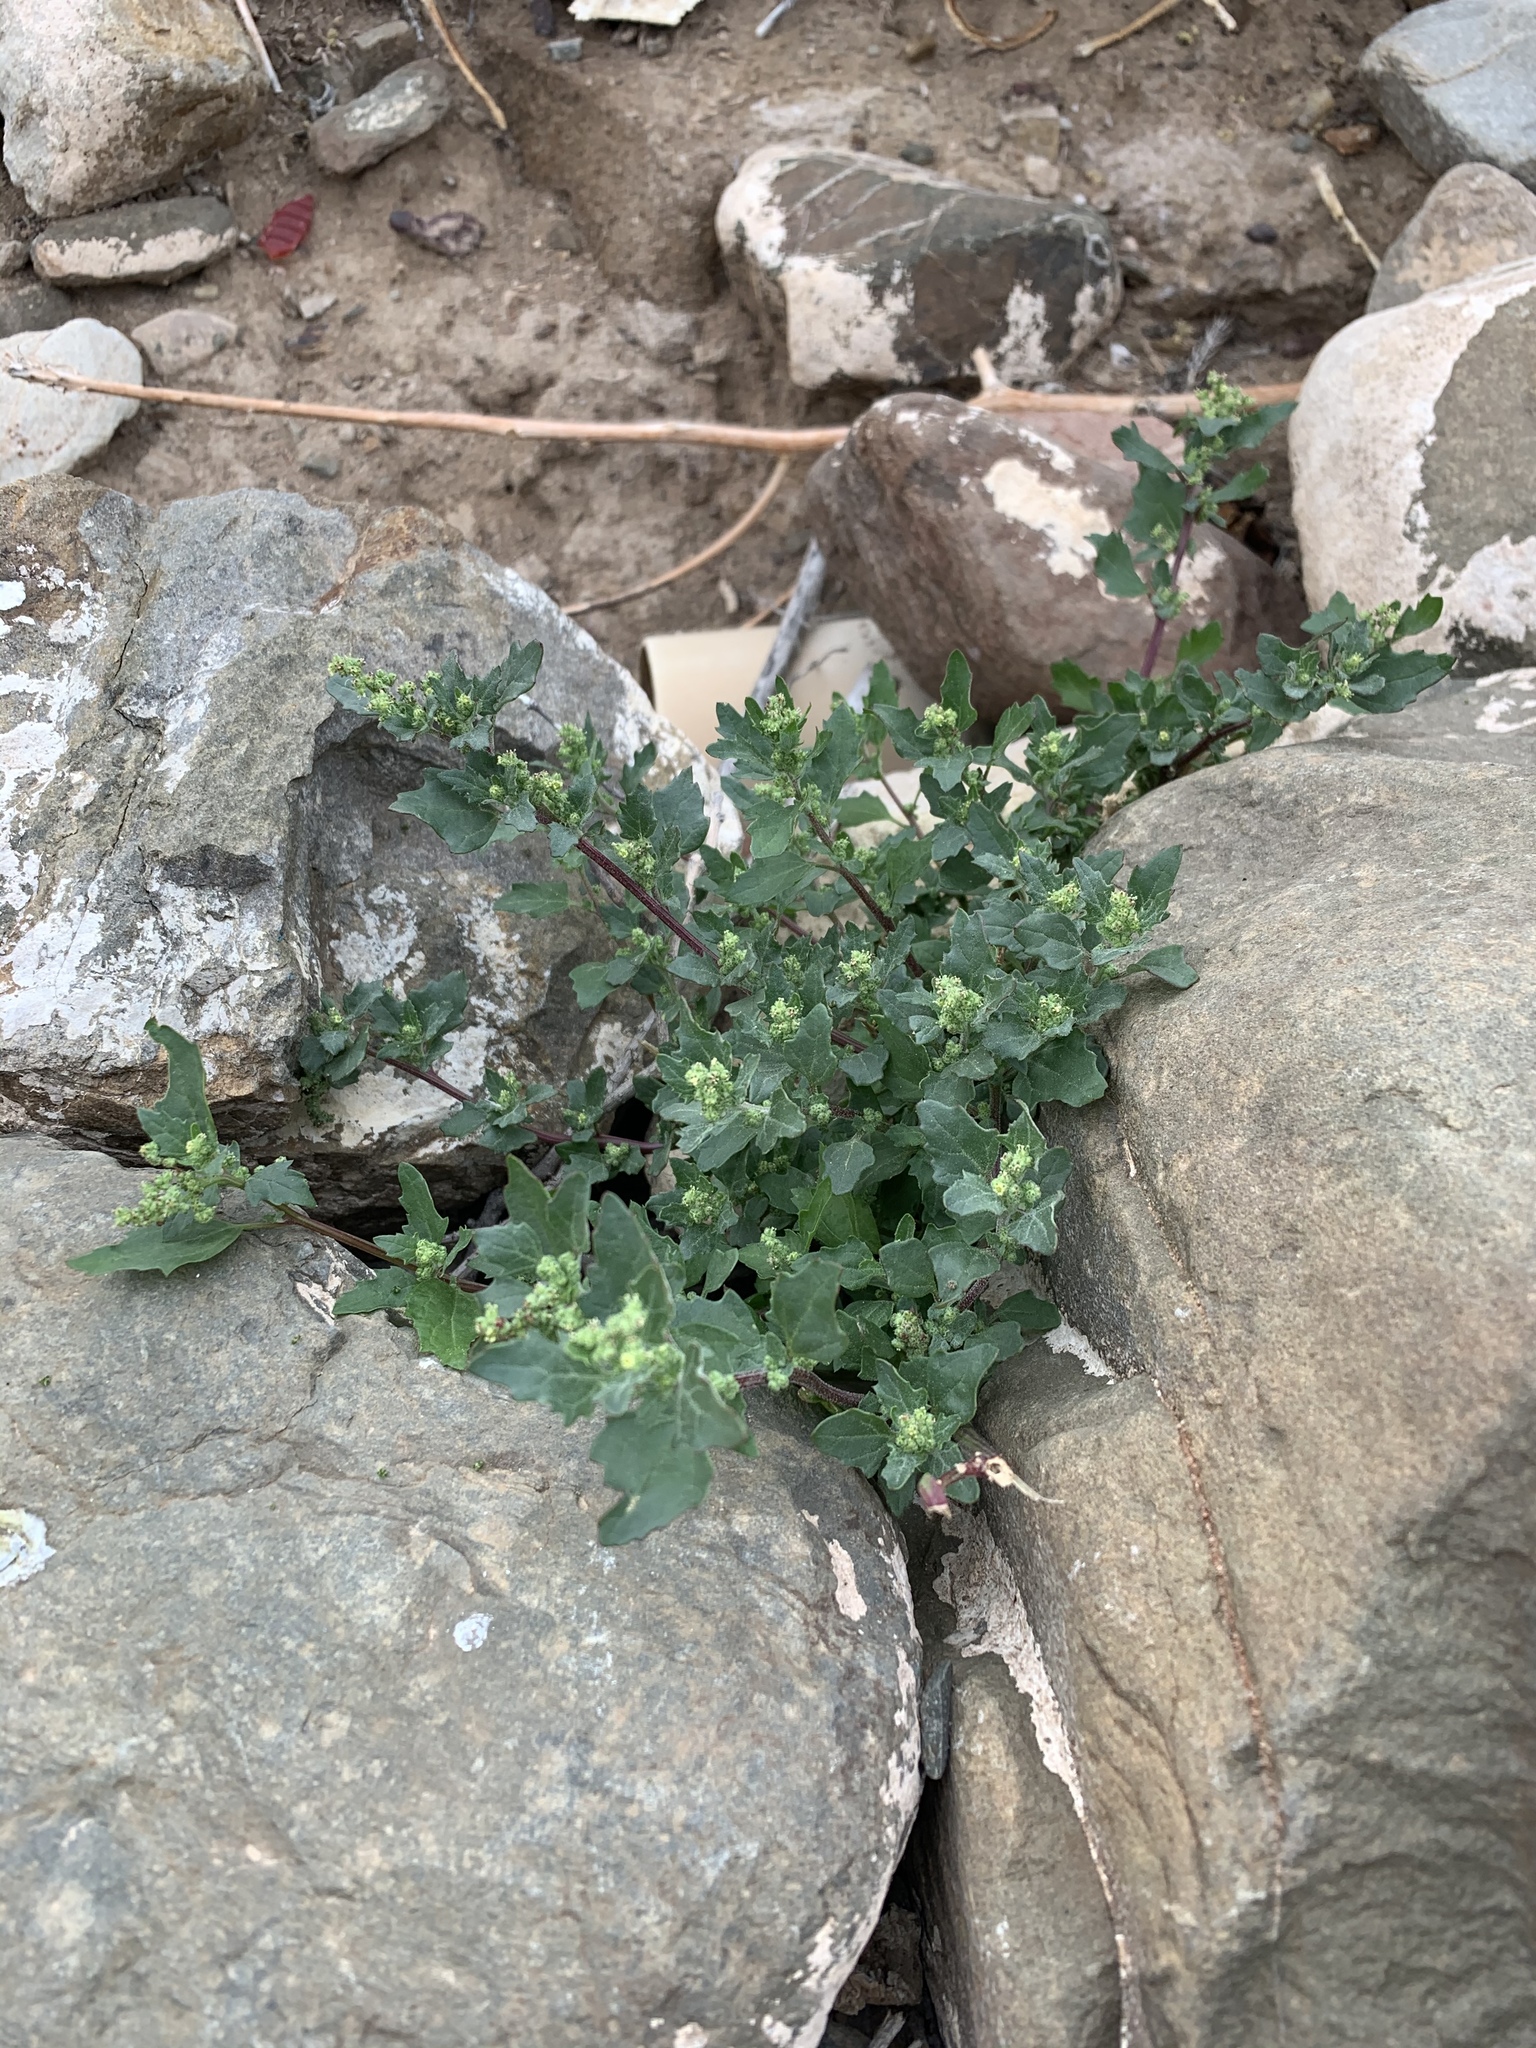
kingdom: Plantae
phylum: Tracheophyta
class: Magnoliopsida
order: Caryophyllales
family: Amaranthaceae
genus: Chenopodiastrum
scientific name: Chenopodiastrum murale
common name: Sowbane
